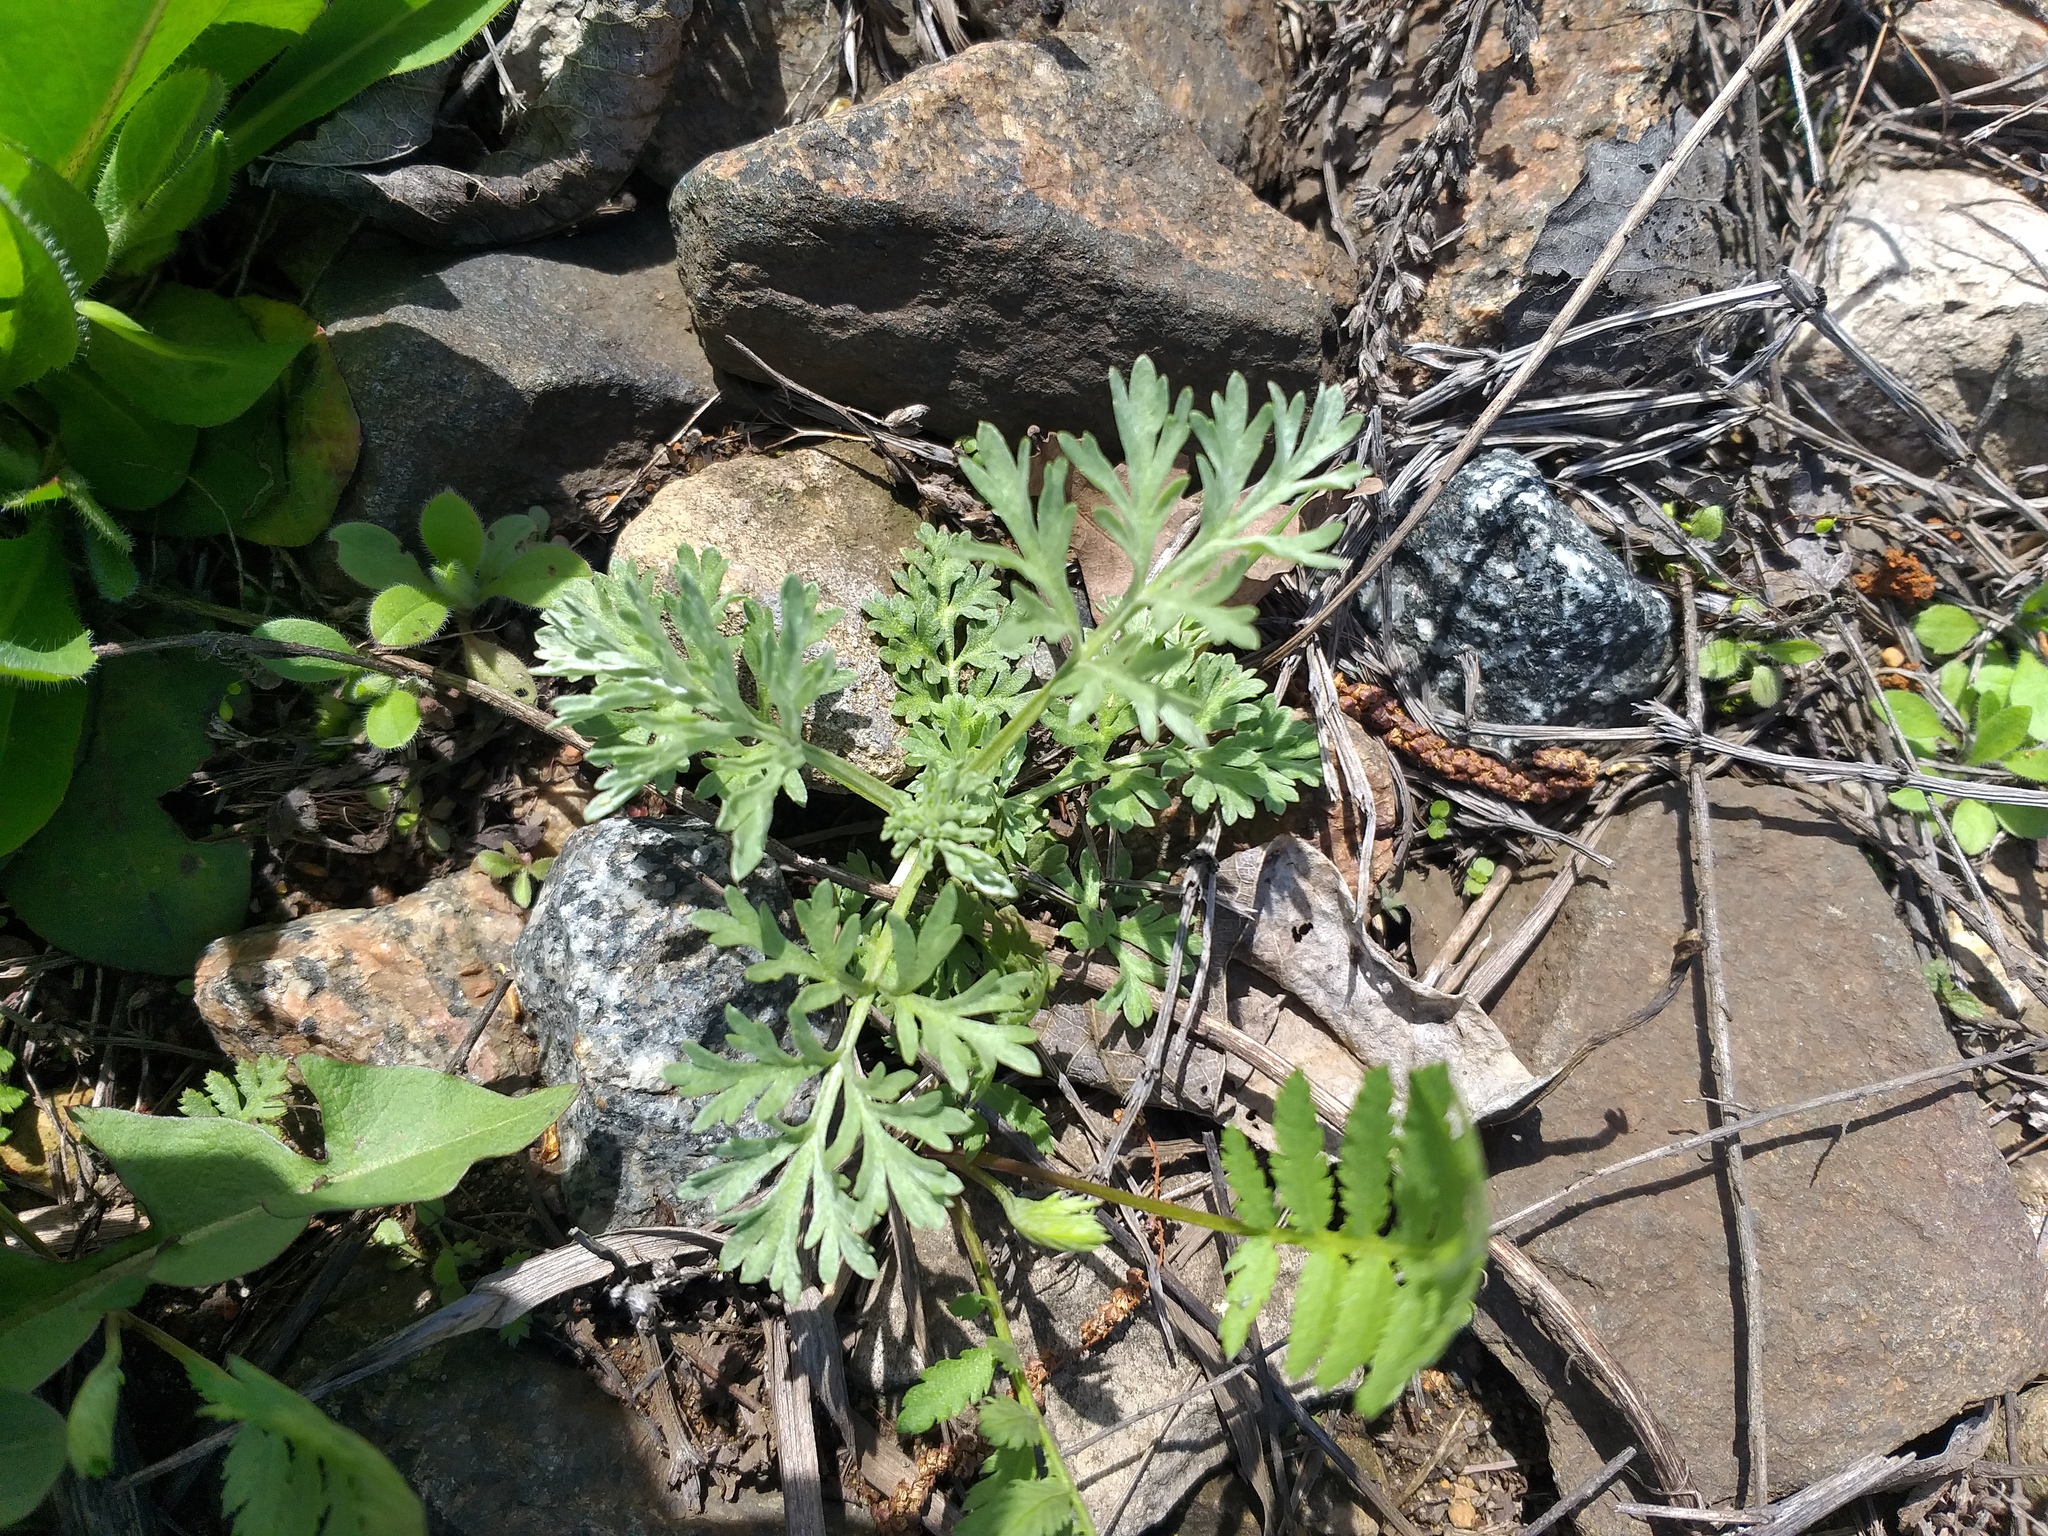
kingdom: Plantae
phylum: Tracheophyta
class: Magnoliopsida
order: Asterales
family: Asteraceae
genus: Artemisia
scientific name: Artemisia absinthium
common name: Wormwood
